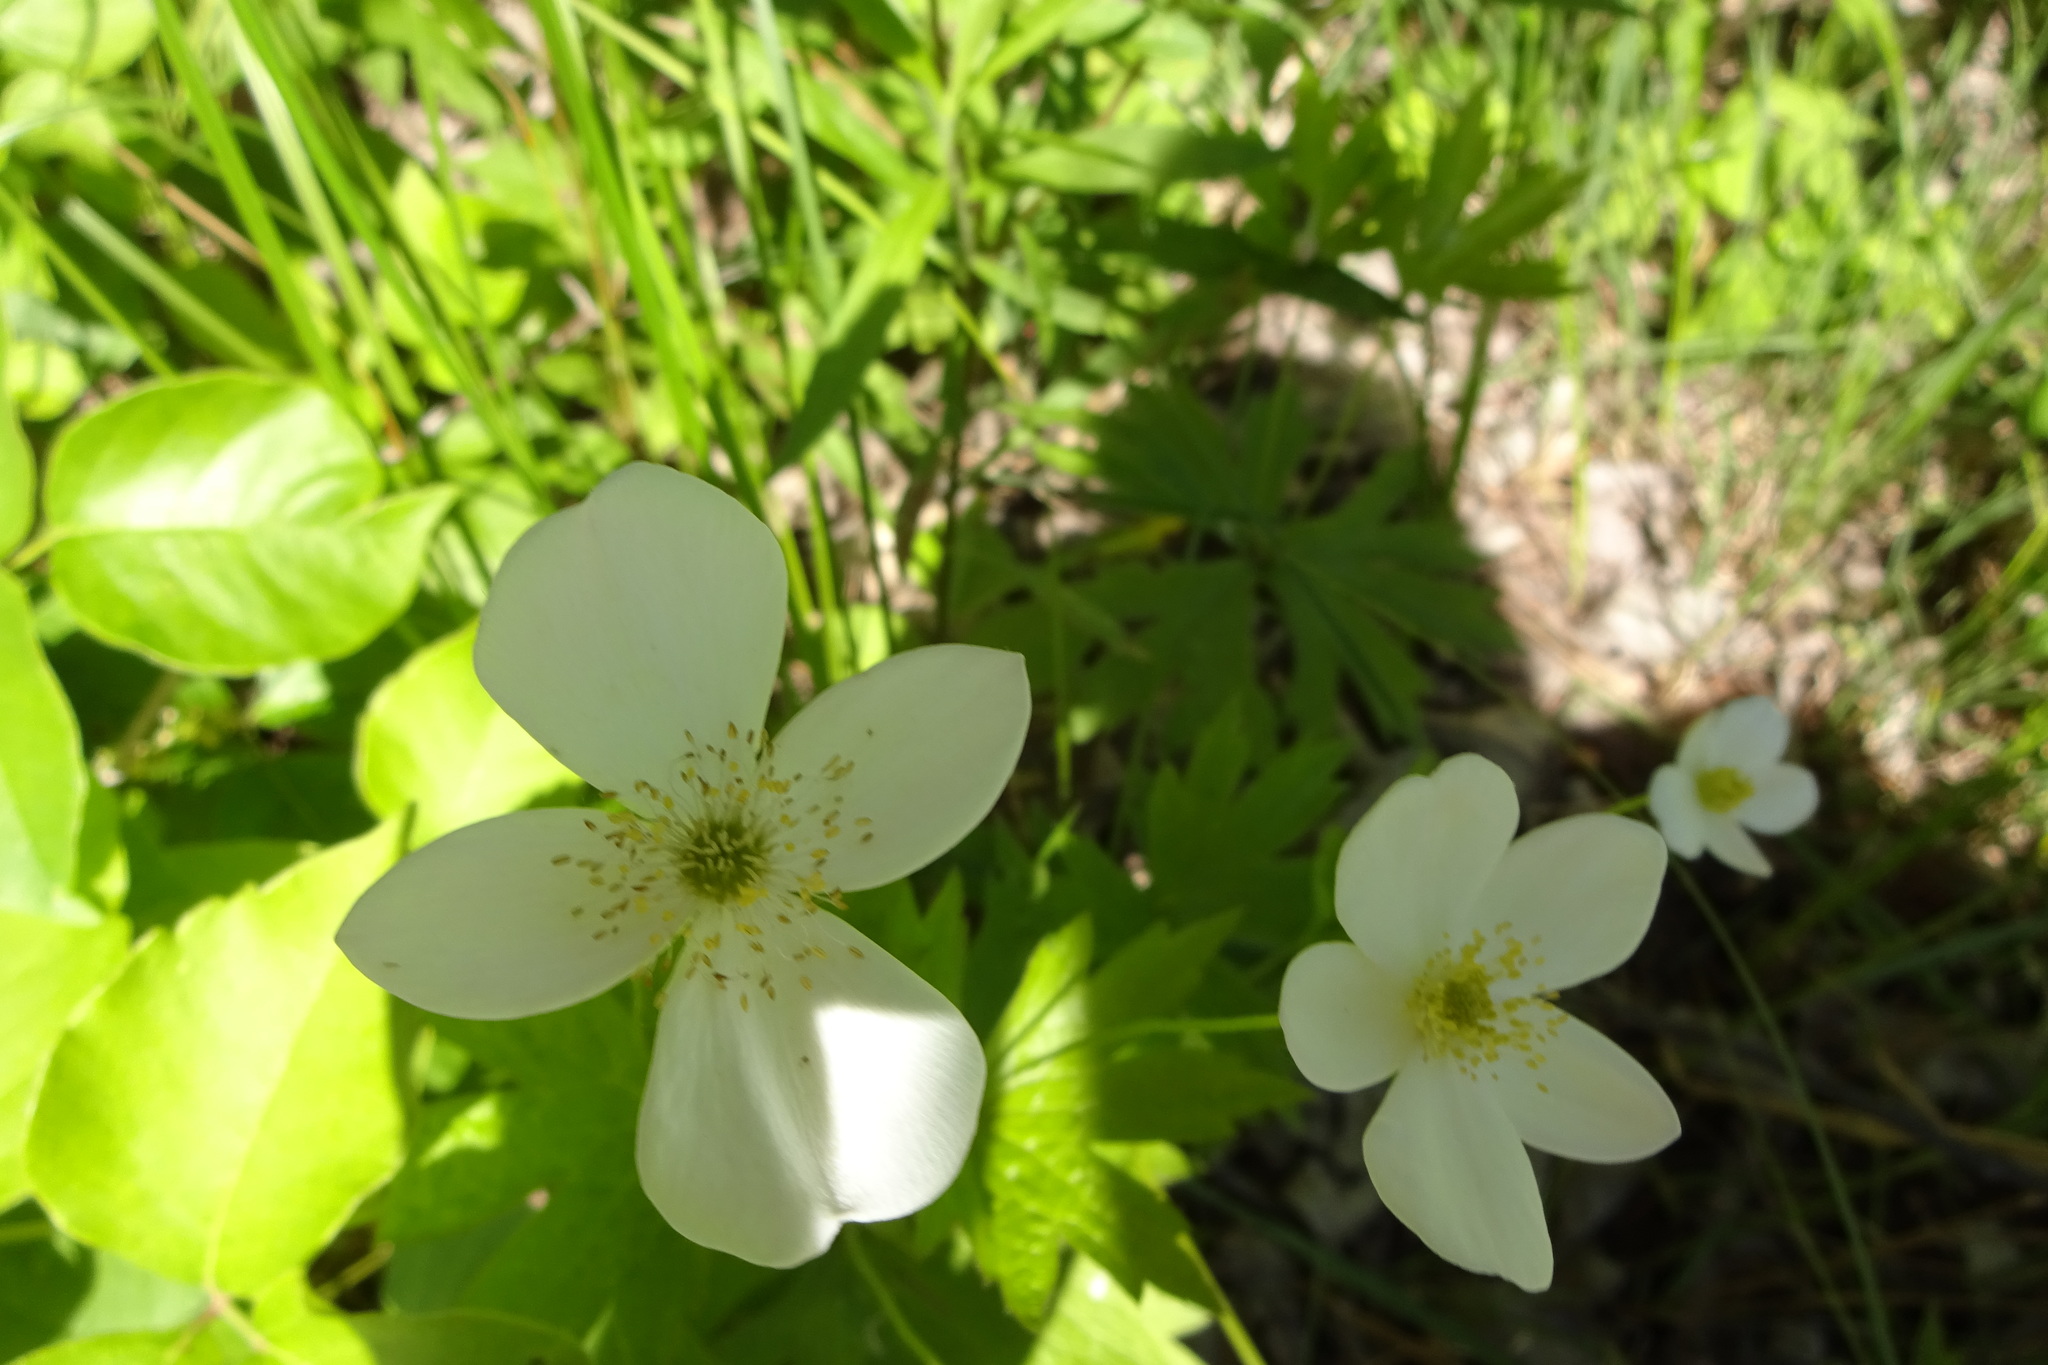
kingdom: Plantae
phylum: Tracheophyta
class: Magnoliopsida
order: Ranunculales
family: Ranunculaceae
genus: Anemonastrum
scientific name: Anemonastrum canadense
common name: Canada anemone
